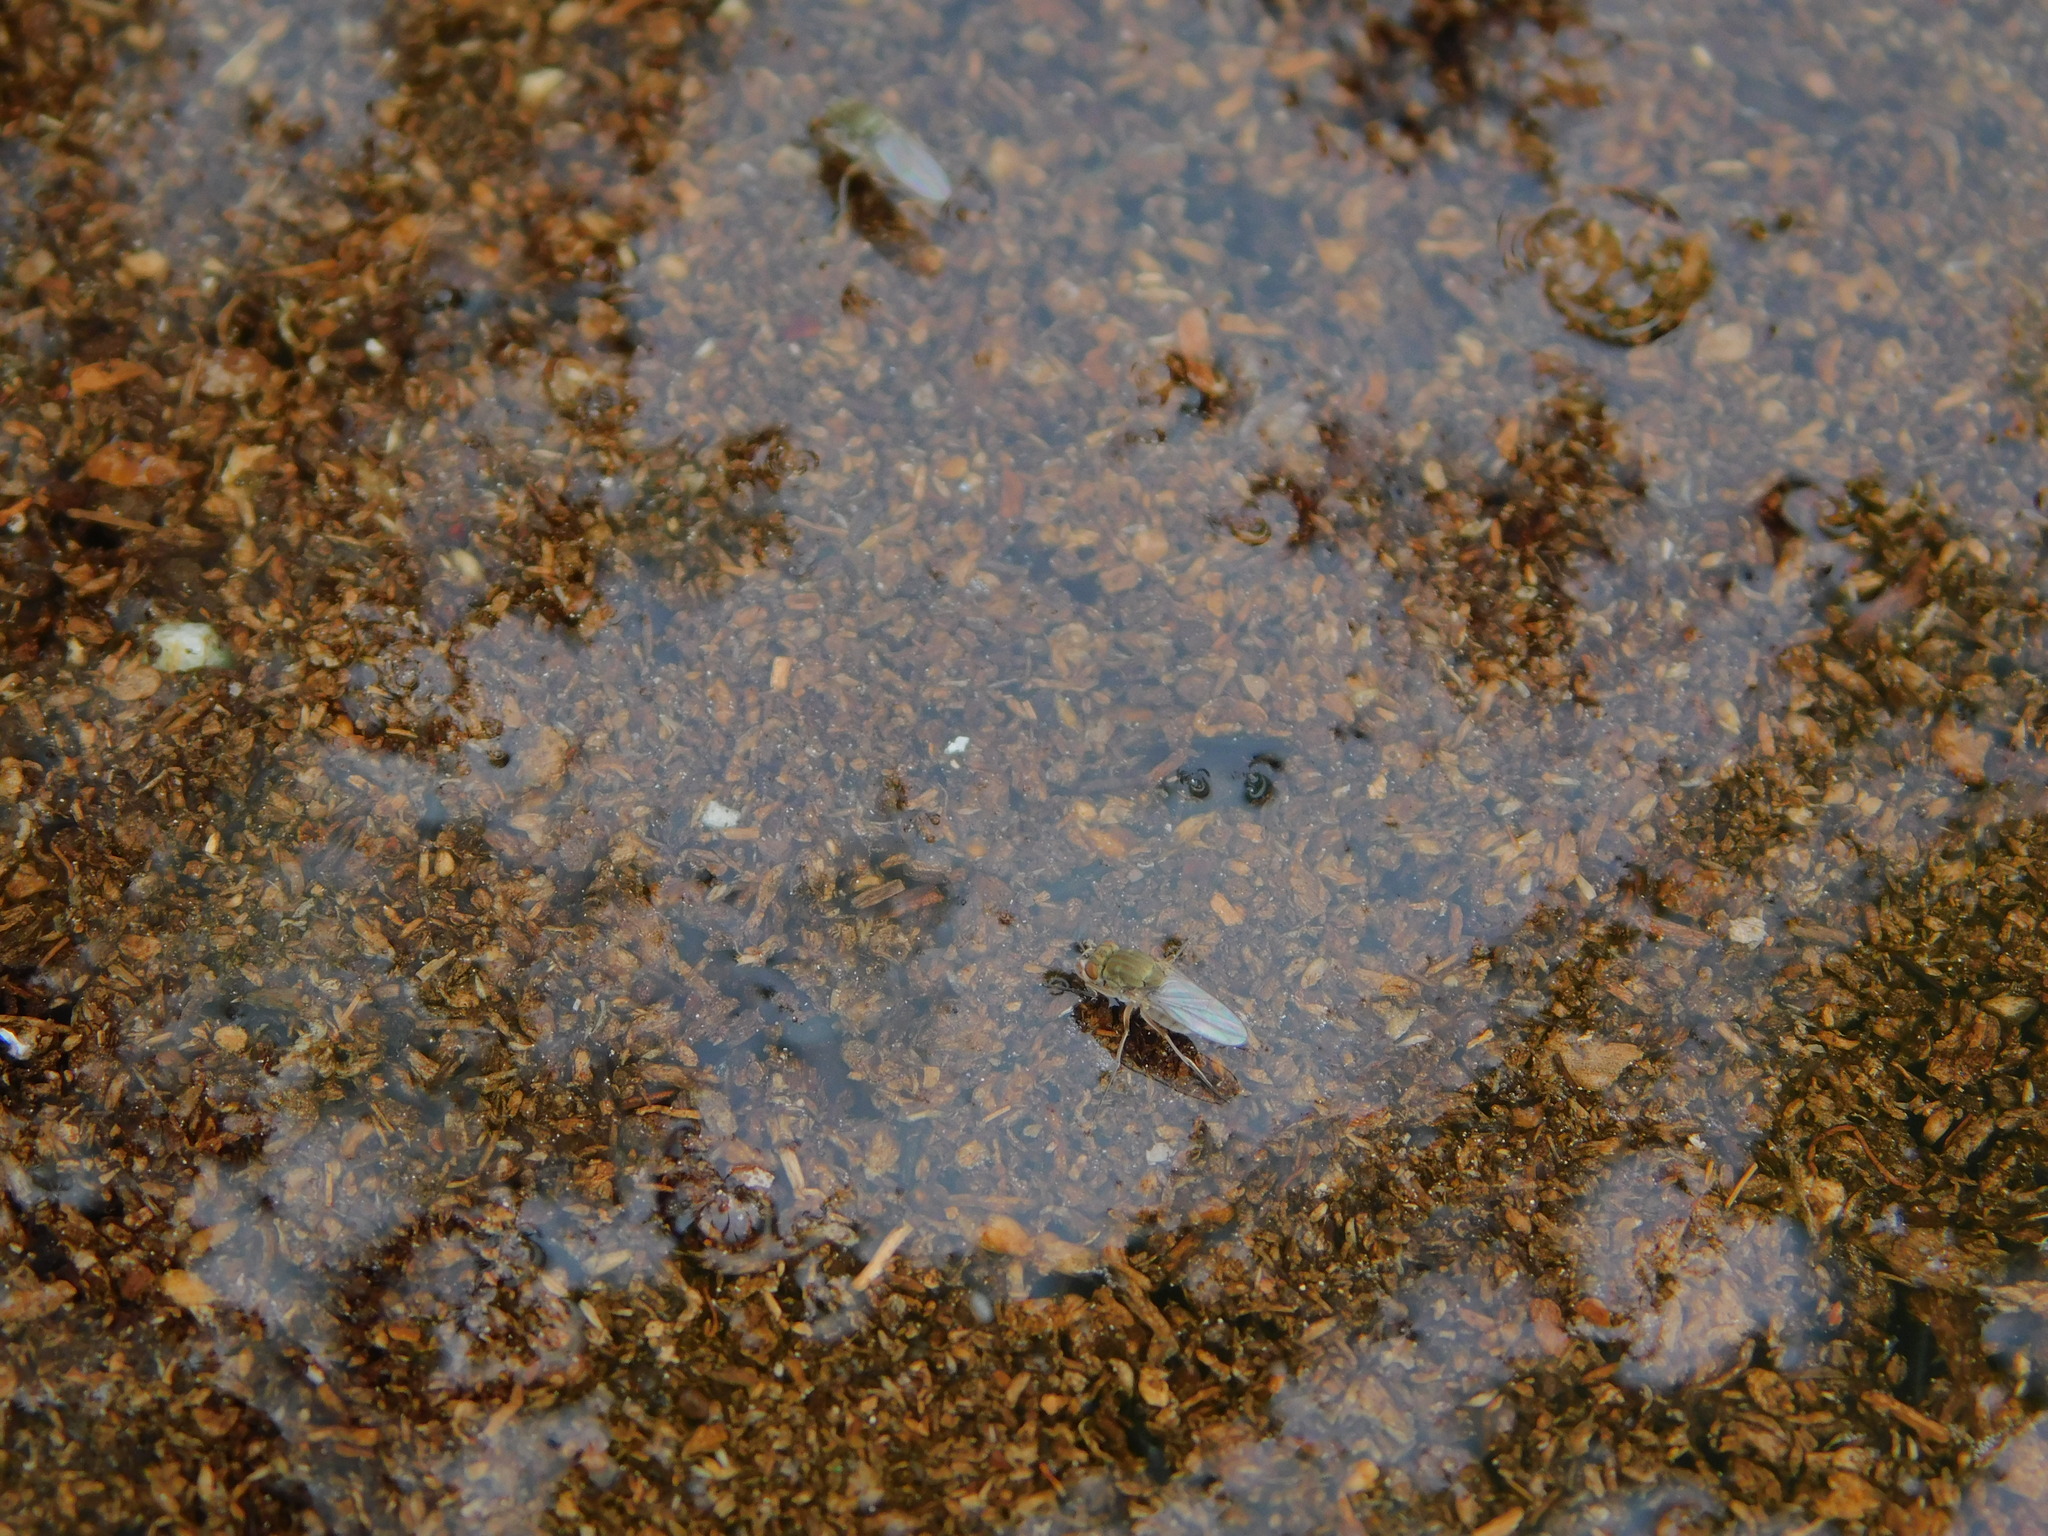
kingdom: Animalia
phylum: Arthropoda
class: Insecta
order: Diptera
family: Ephydridae
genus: Brachydeutera
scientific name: Brachydeutera longipes
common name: Shore fly
